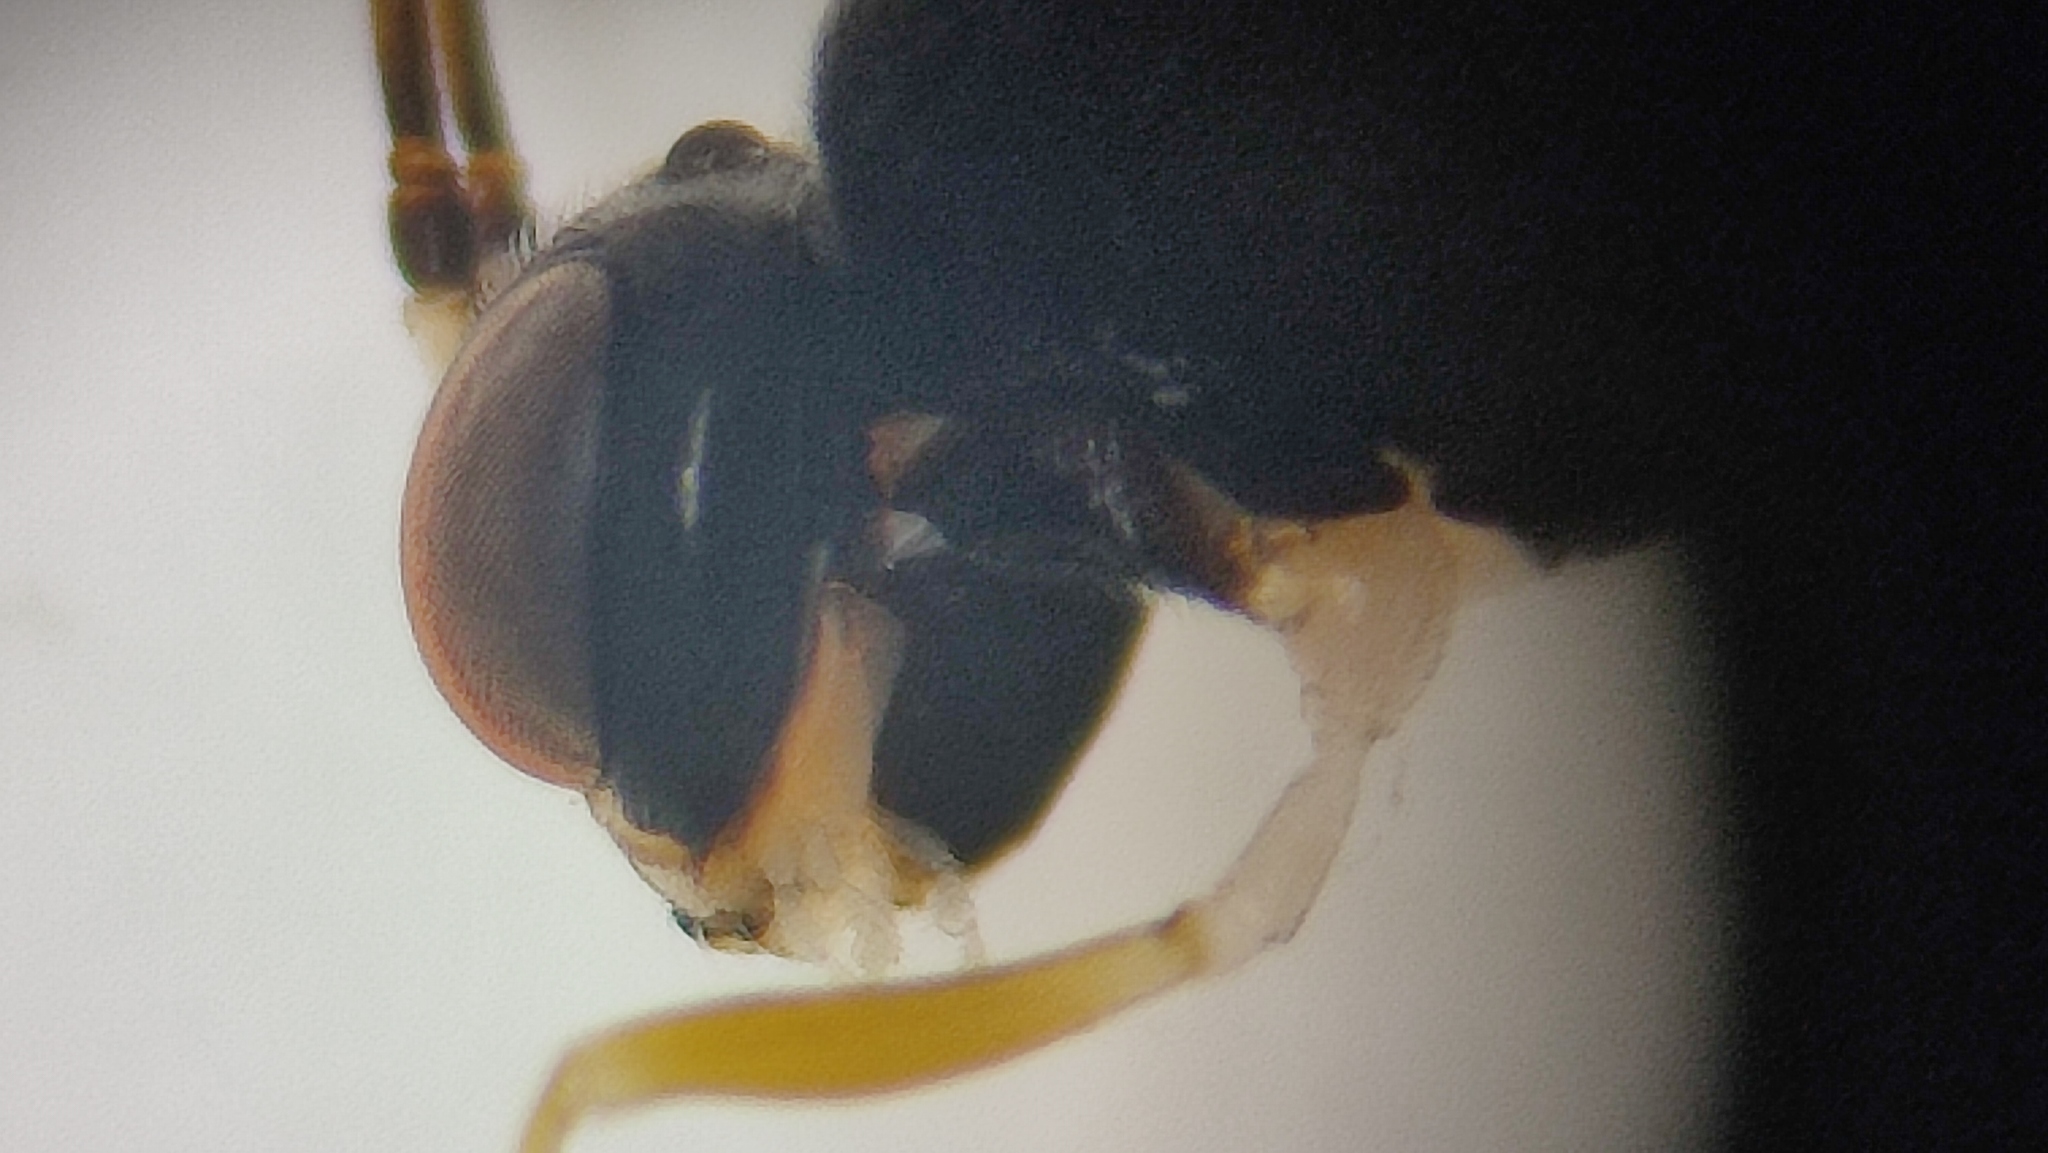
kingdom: Animalia
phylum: Arthropoda
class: Insecta
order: Hymenoptera
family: Ichneumonidae
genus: Anomalon
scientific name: Anomalon anae
